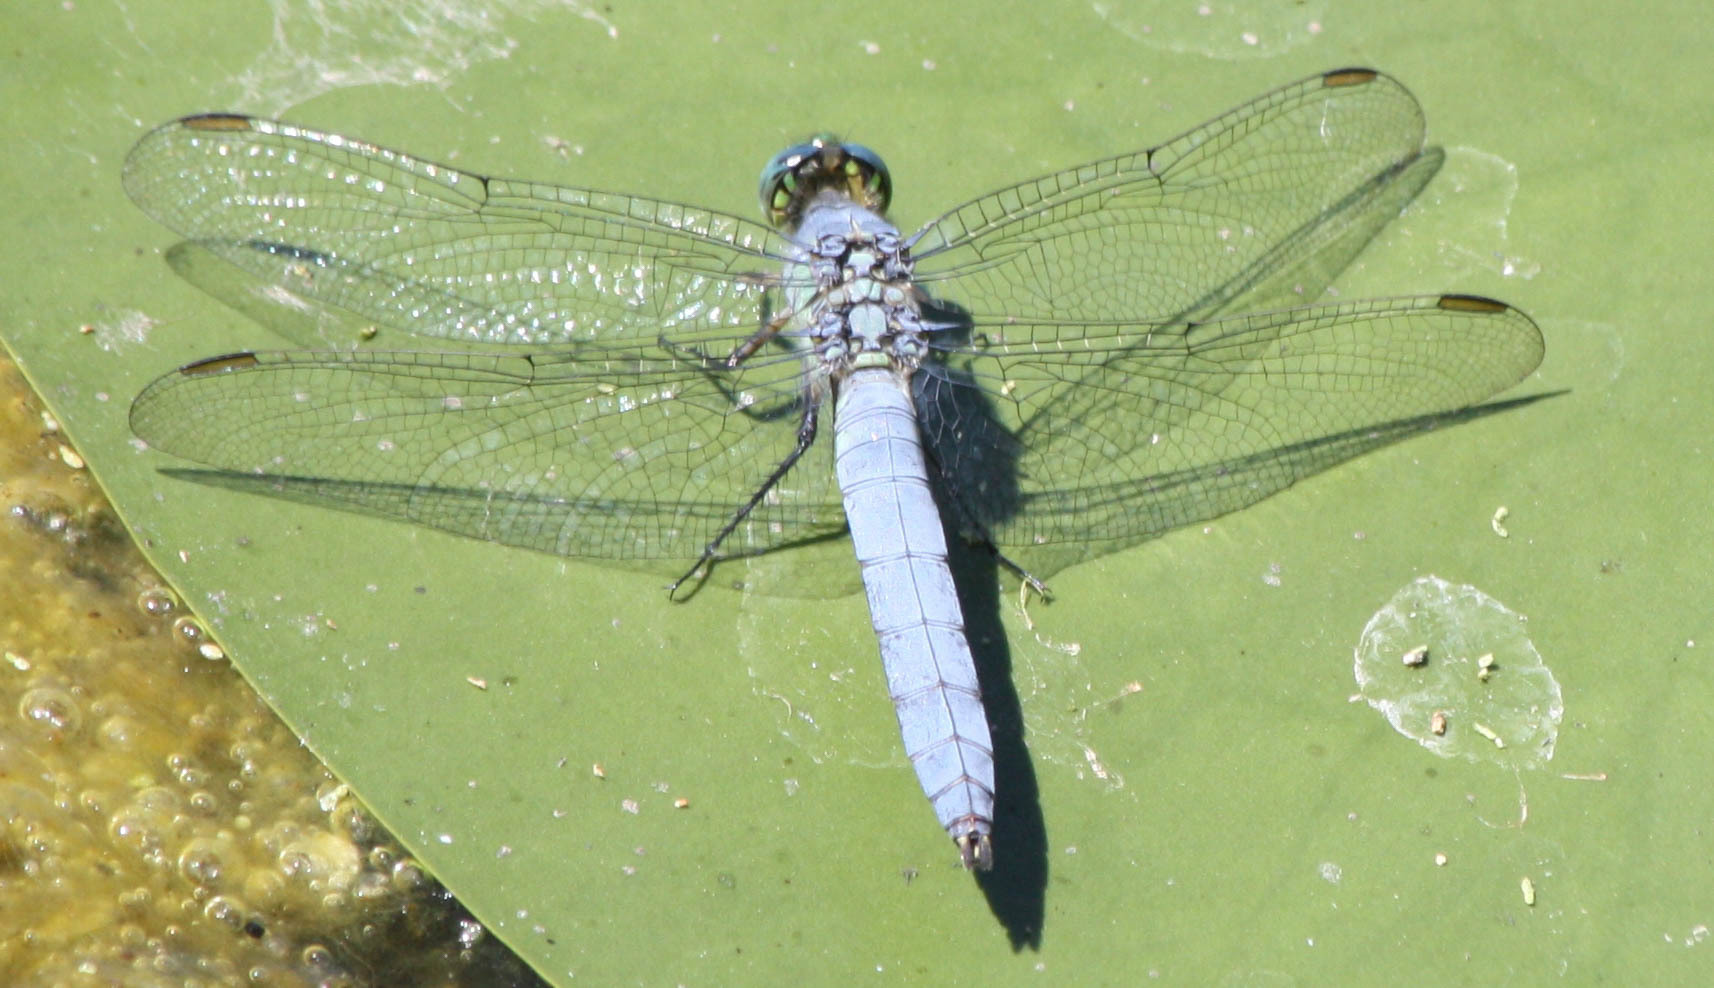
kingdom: Animalia
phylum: Arthropoda
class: Insecta
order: Odonata
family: Libellulidae
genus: Erythemis
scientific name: Erythemis collocata
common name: Western pondhawk
